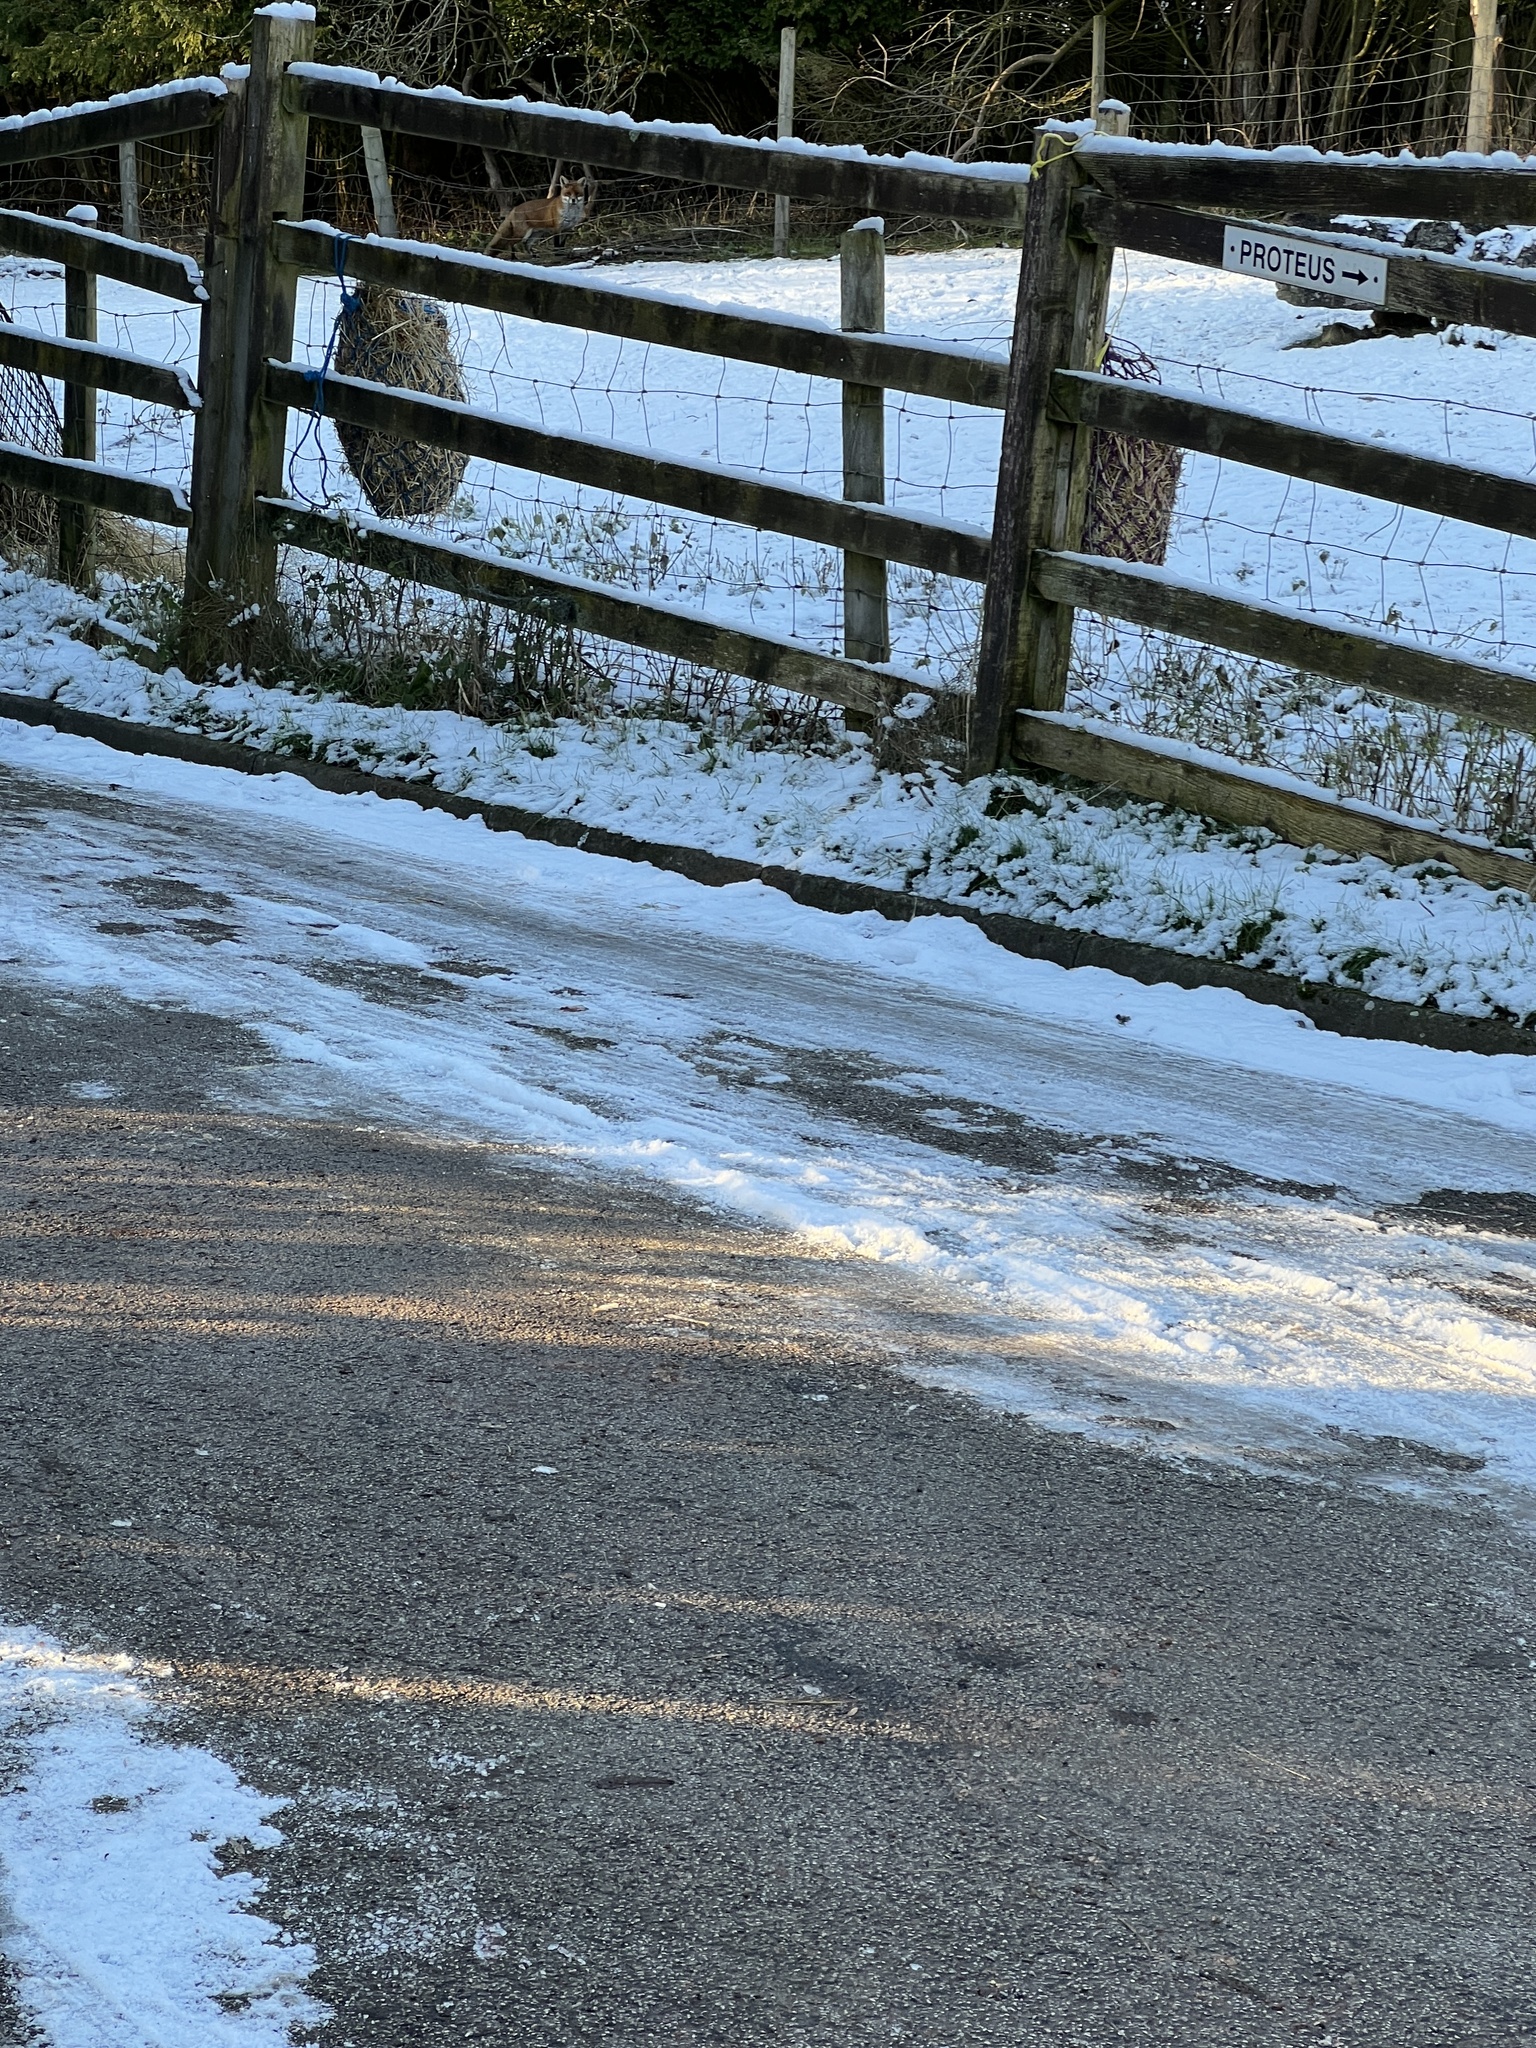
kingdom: Animalia
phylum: Chordata
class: Mammalia
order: Carnivora
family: Canidae
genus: Vulpes
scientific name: Vulpes vulpes
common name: Red fox
